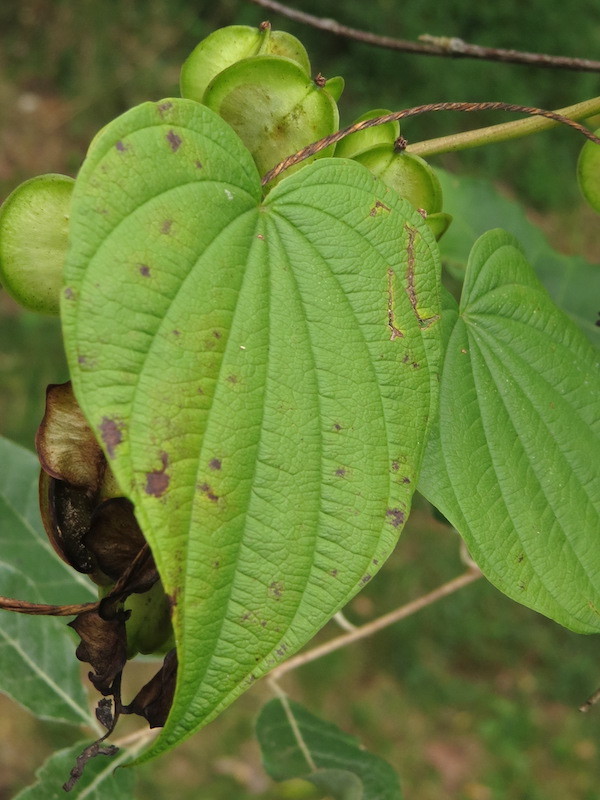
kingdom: Plantae
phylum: Tracheophyta
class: Liliopsida
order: Dioscoreales
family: Dioscoreaceae
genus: Dioscorea
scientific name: Dioscorea villosa
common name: Wild yam
